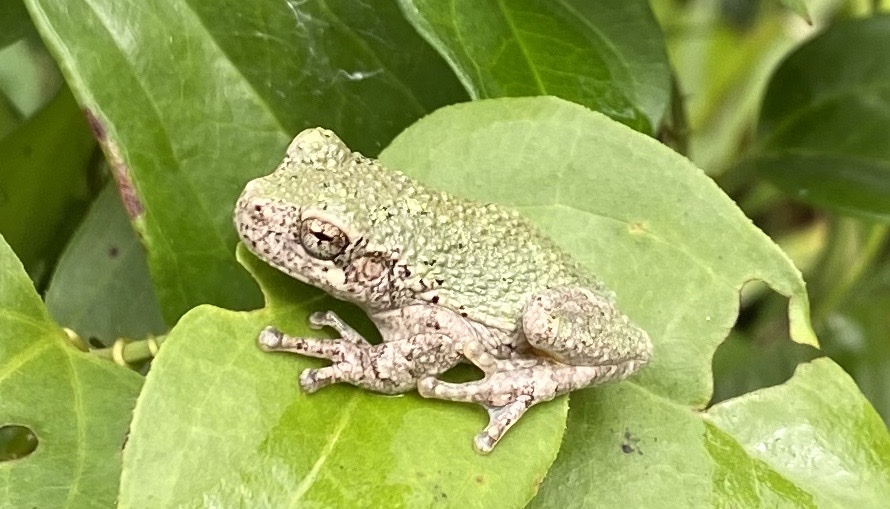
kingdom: Animalia
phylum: Chordata
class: Amphibia
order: Anura
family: Hylidae
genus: Dryophytes
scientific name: Dryophytes chrysoscelis
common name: Cope's gray treefrog
